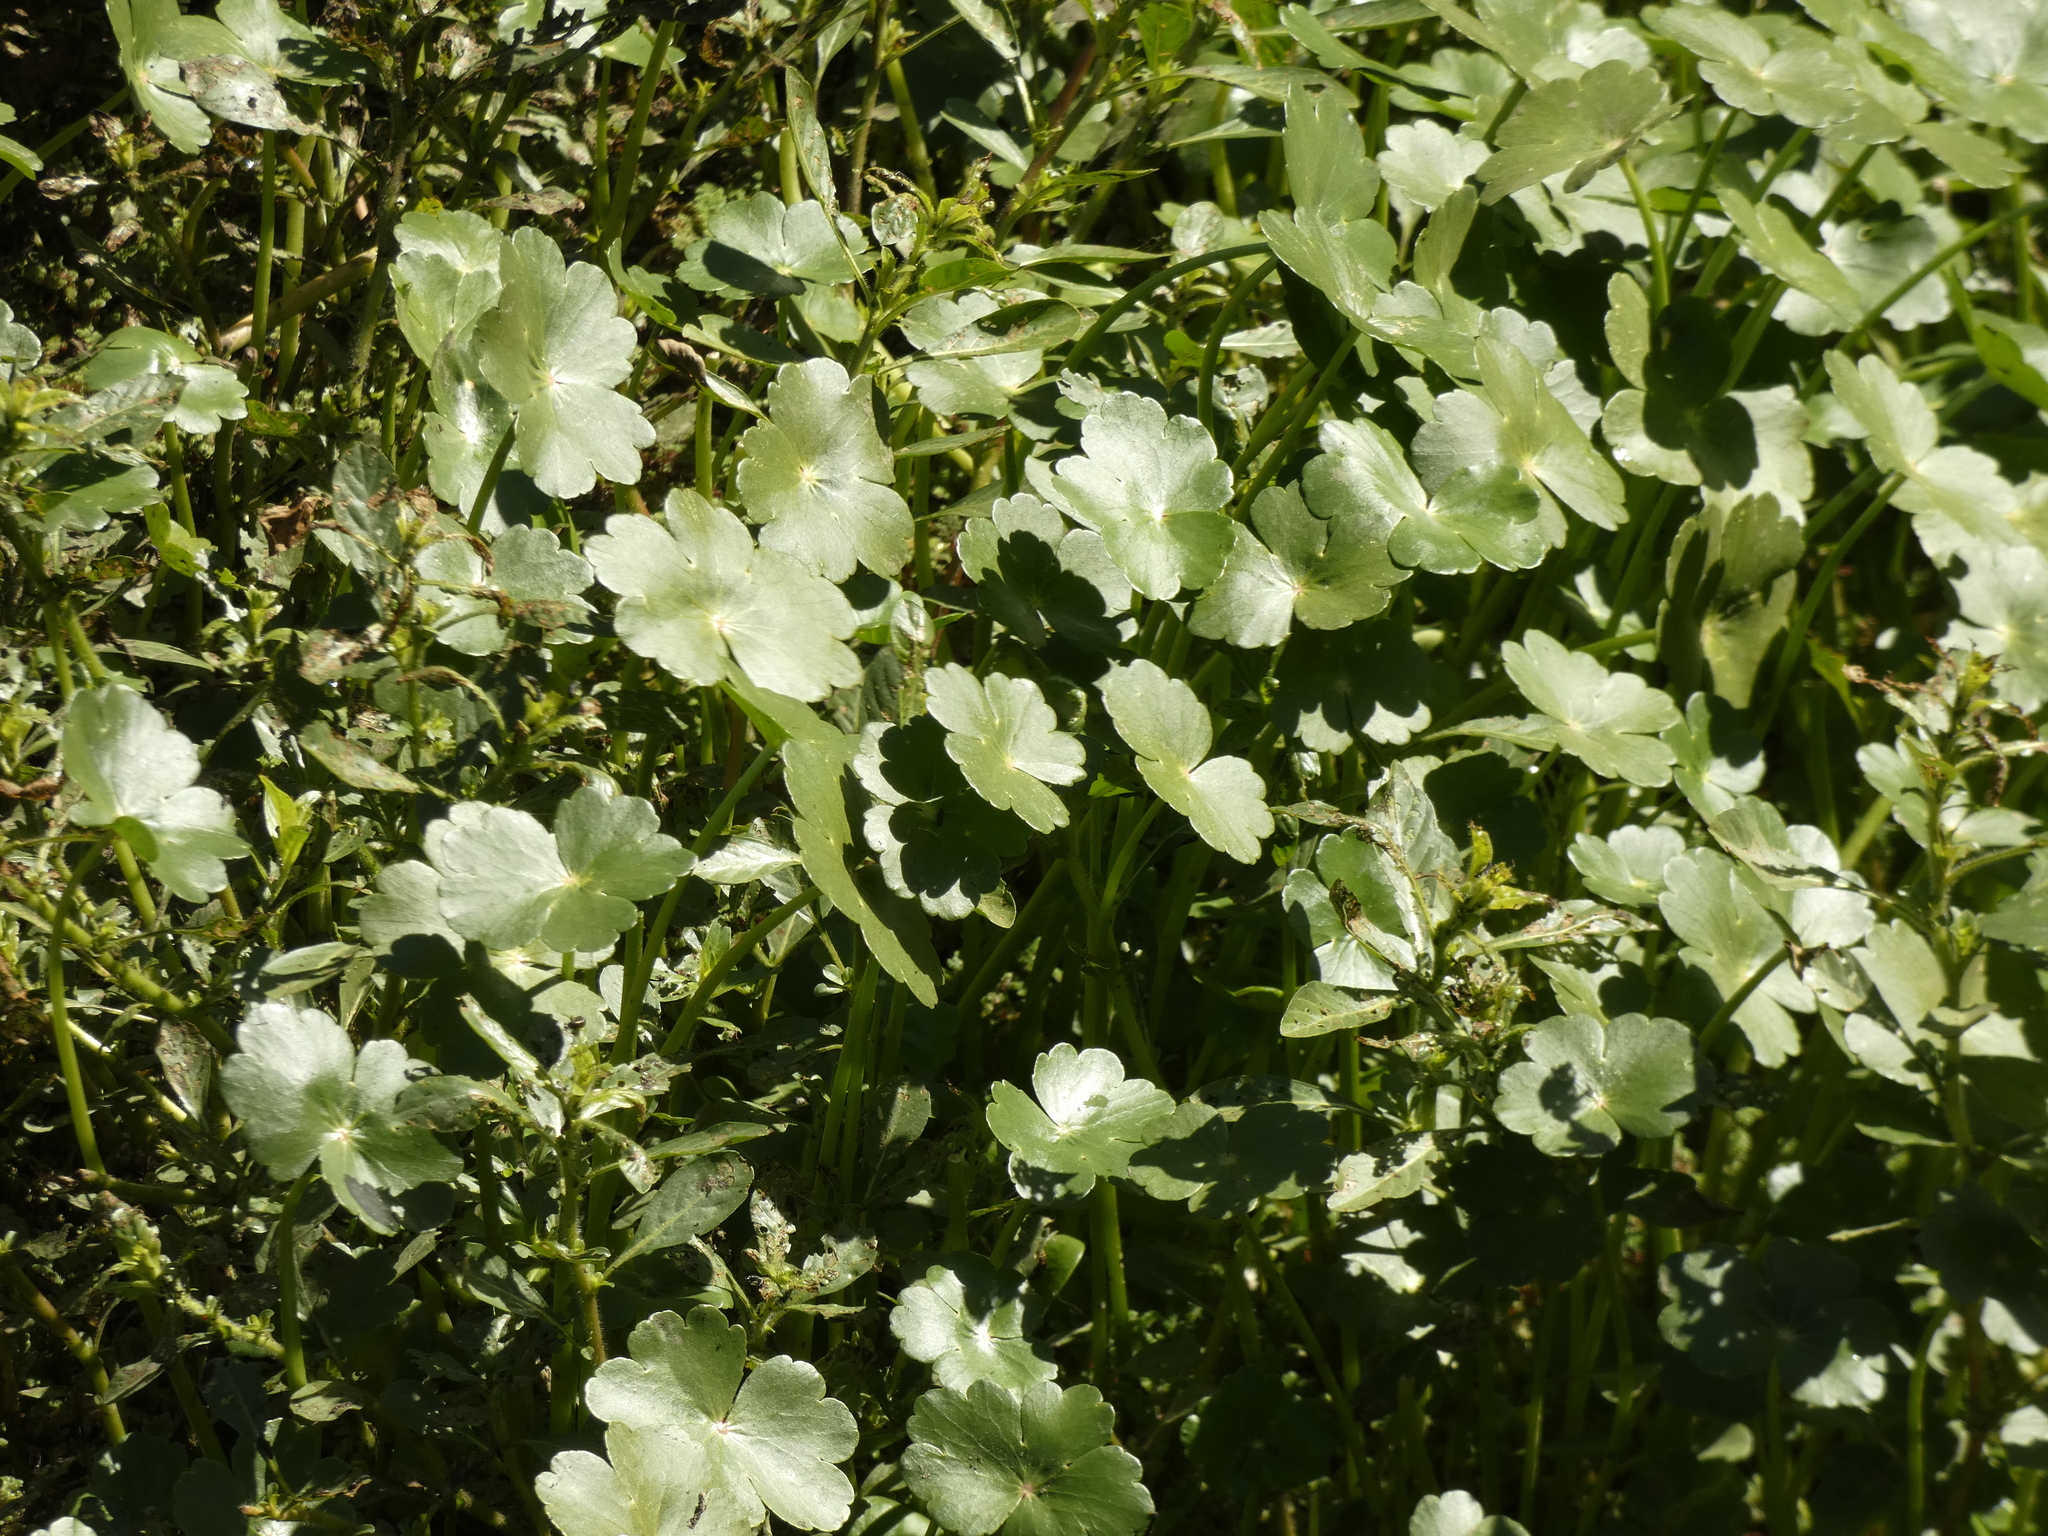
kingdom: Plantae
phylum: Tracheophyta
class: Magnoliopsida
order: Apiales
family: Araliaceae
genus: Hydrocotyle
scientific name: Hydrocotyle ranunculoides
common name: Floating pennywort
